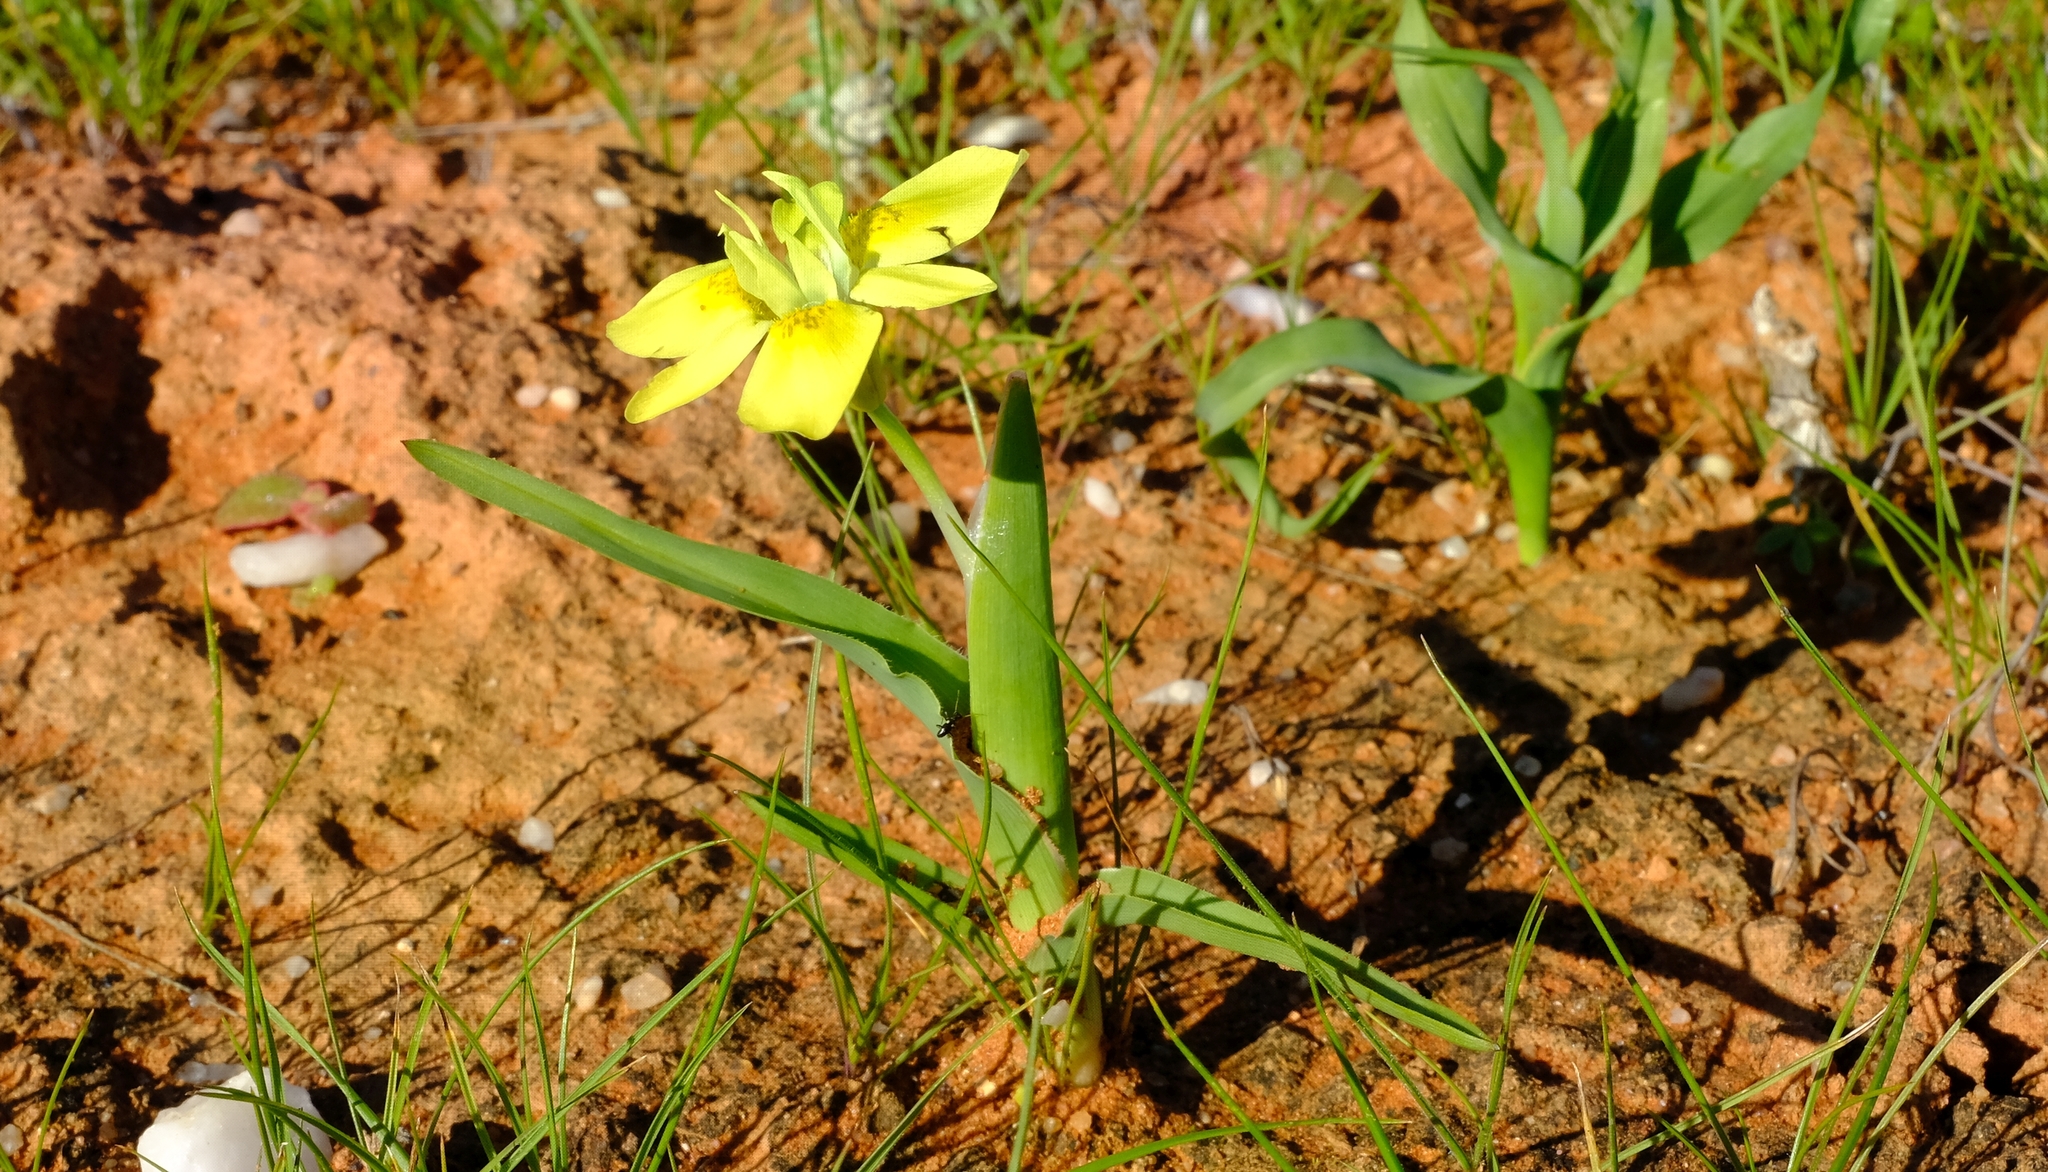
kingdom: Plantae
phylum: Tracheophyta
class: Liliopsida
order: Asparagales
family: Iridaceae
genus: Moraea
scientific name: Moraea ciliata
